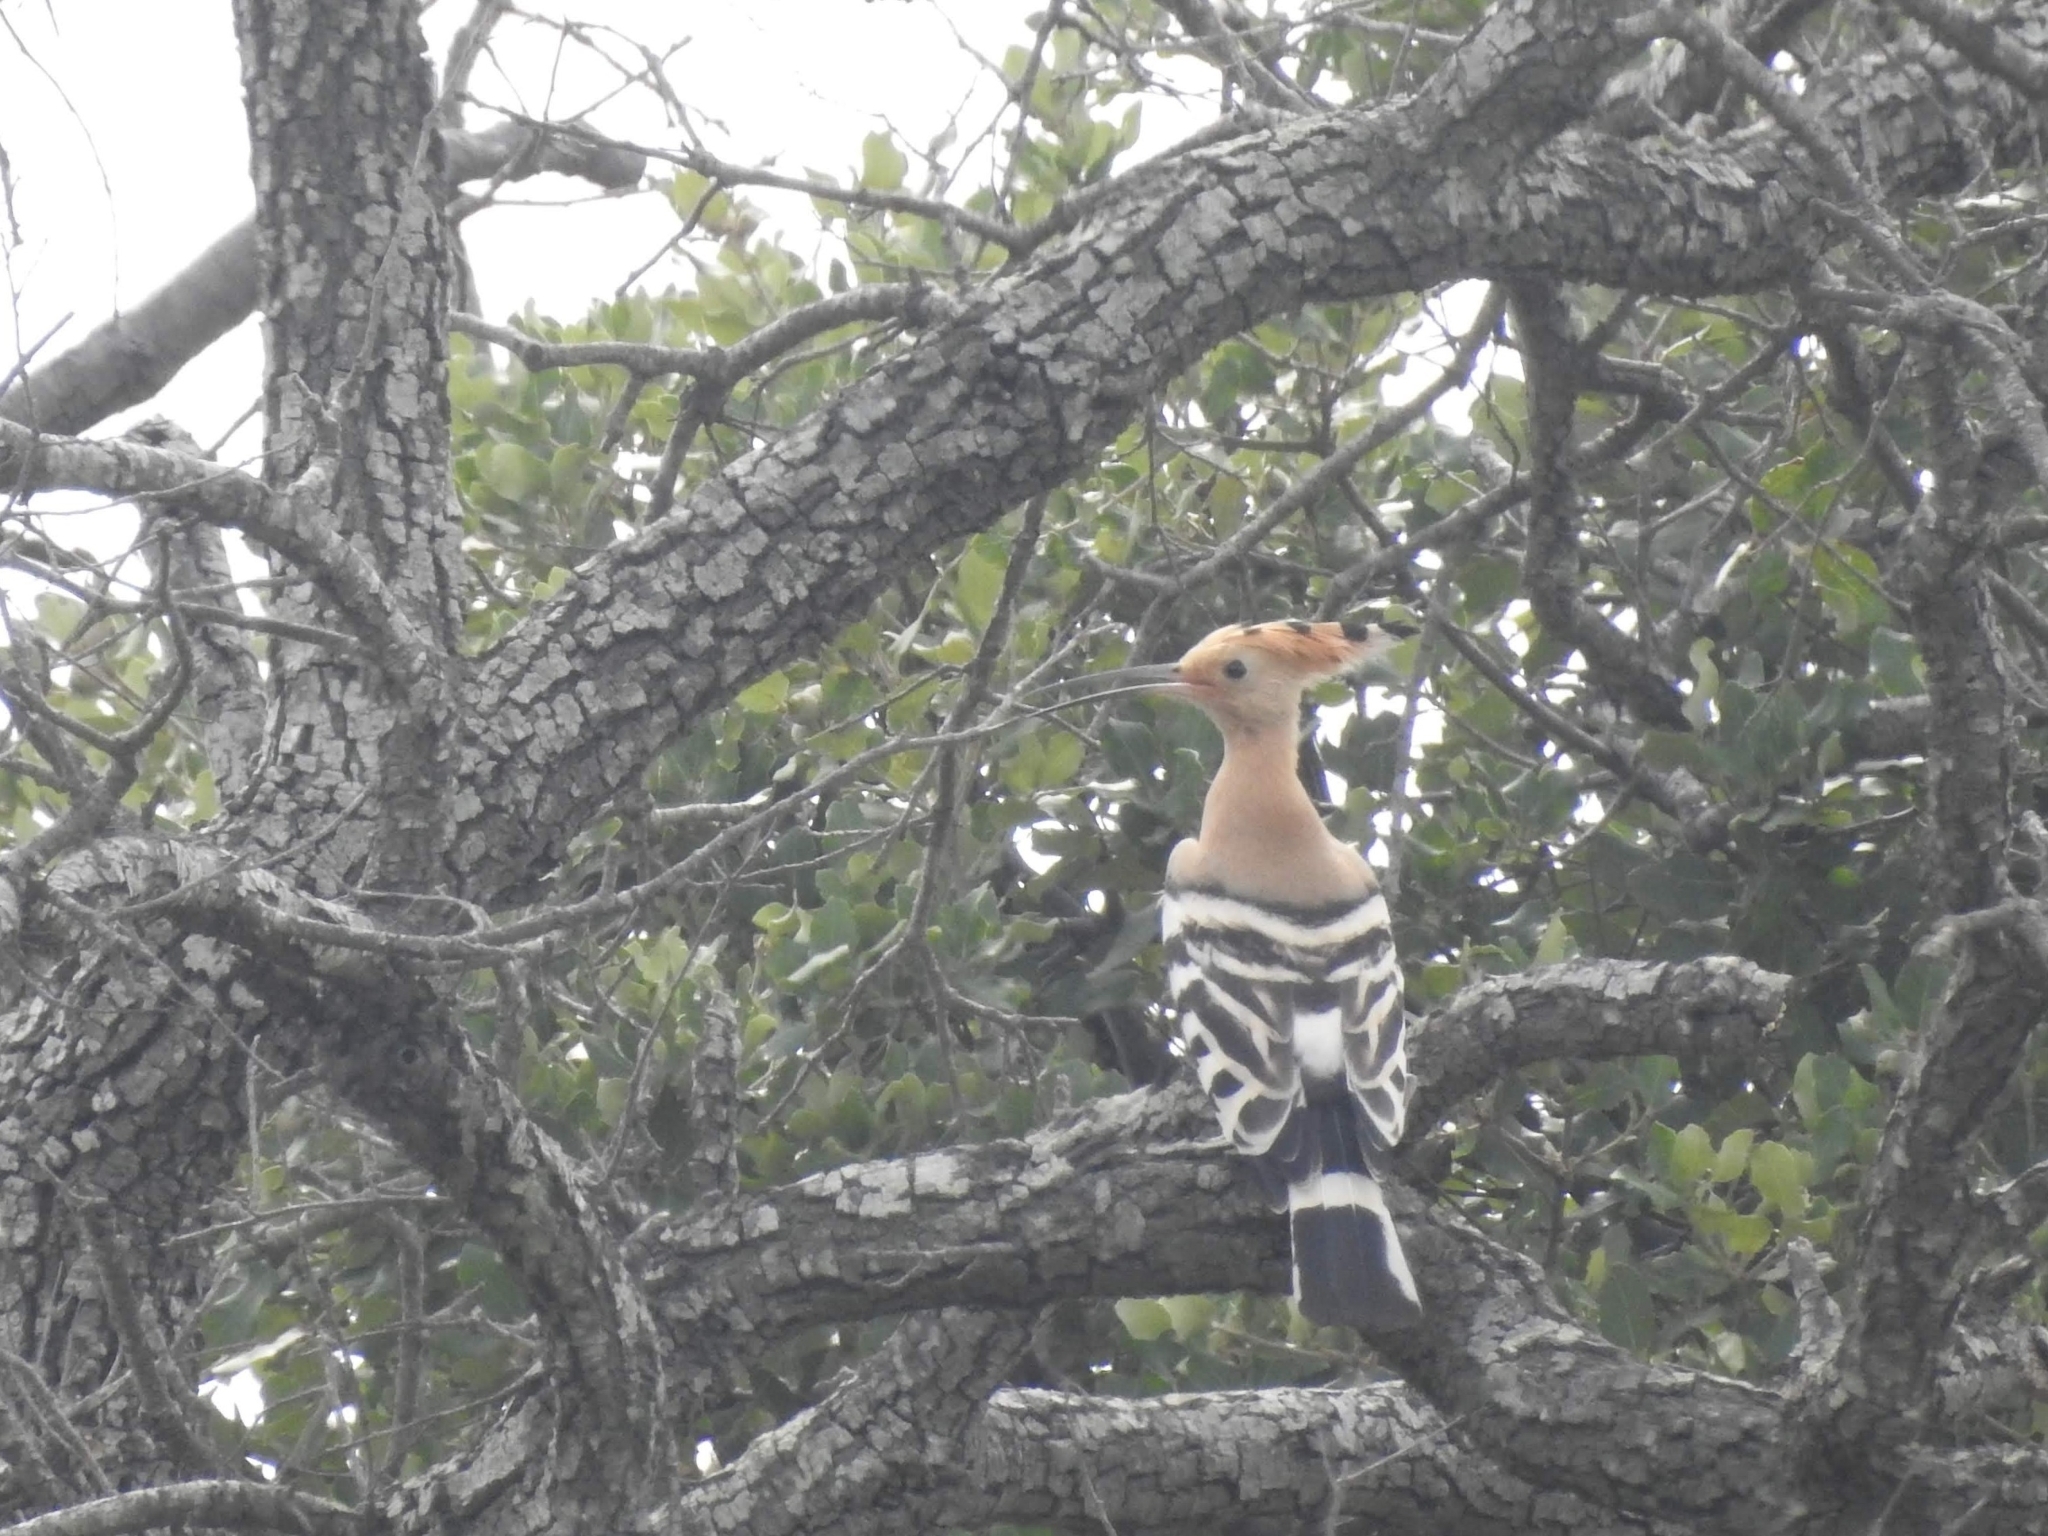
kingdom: Animalia
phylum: Chordata
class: Aves
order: Bucerotiformes
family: Upupidae
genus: Upupa
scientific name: Upupa epops
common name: Eurasian hoopoe
